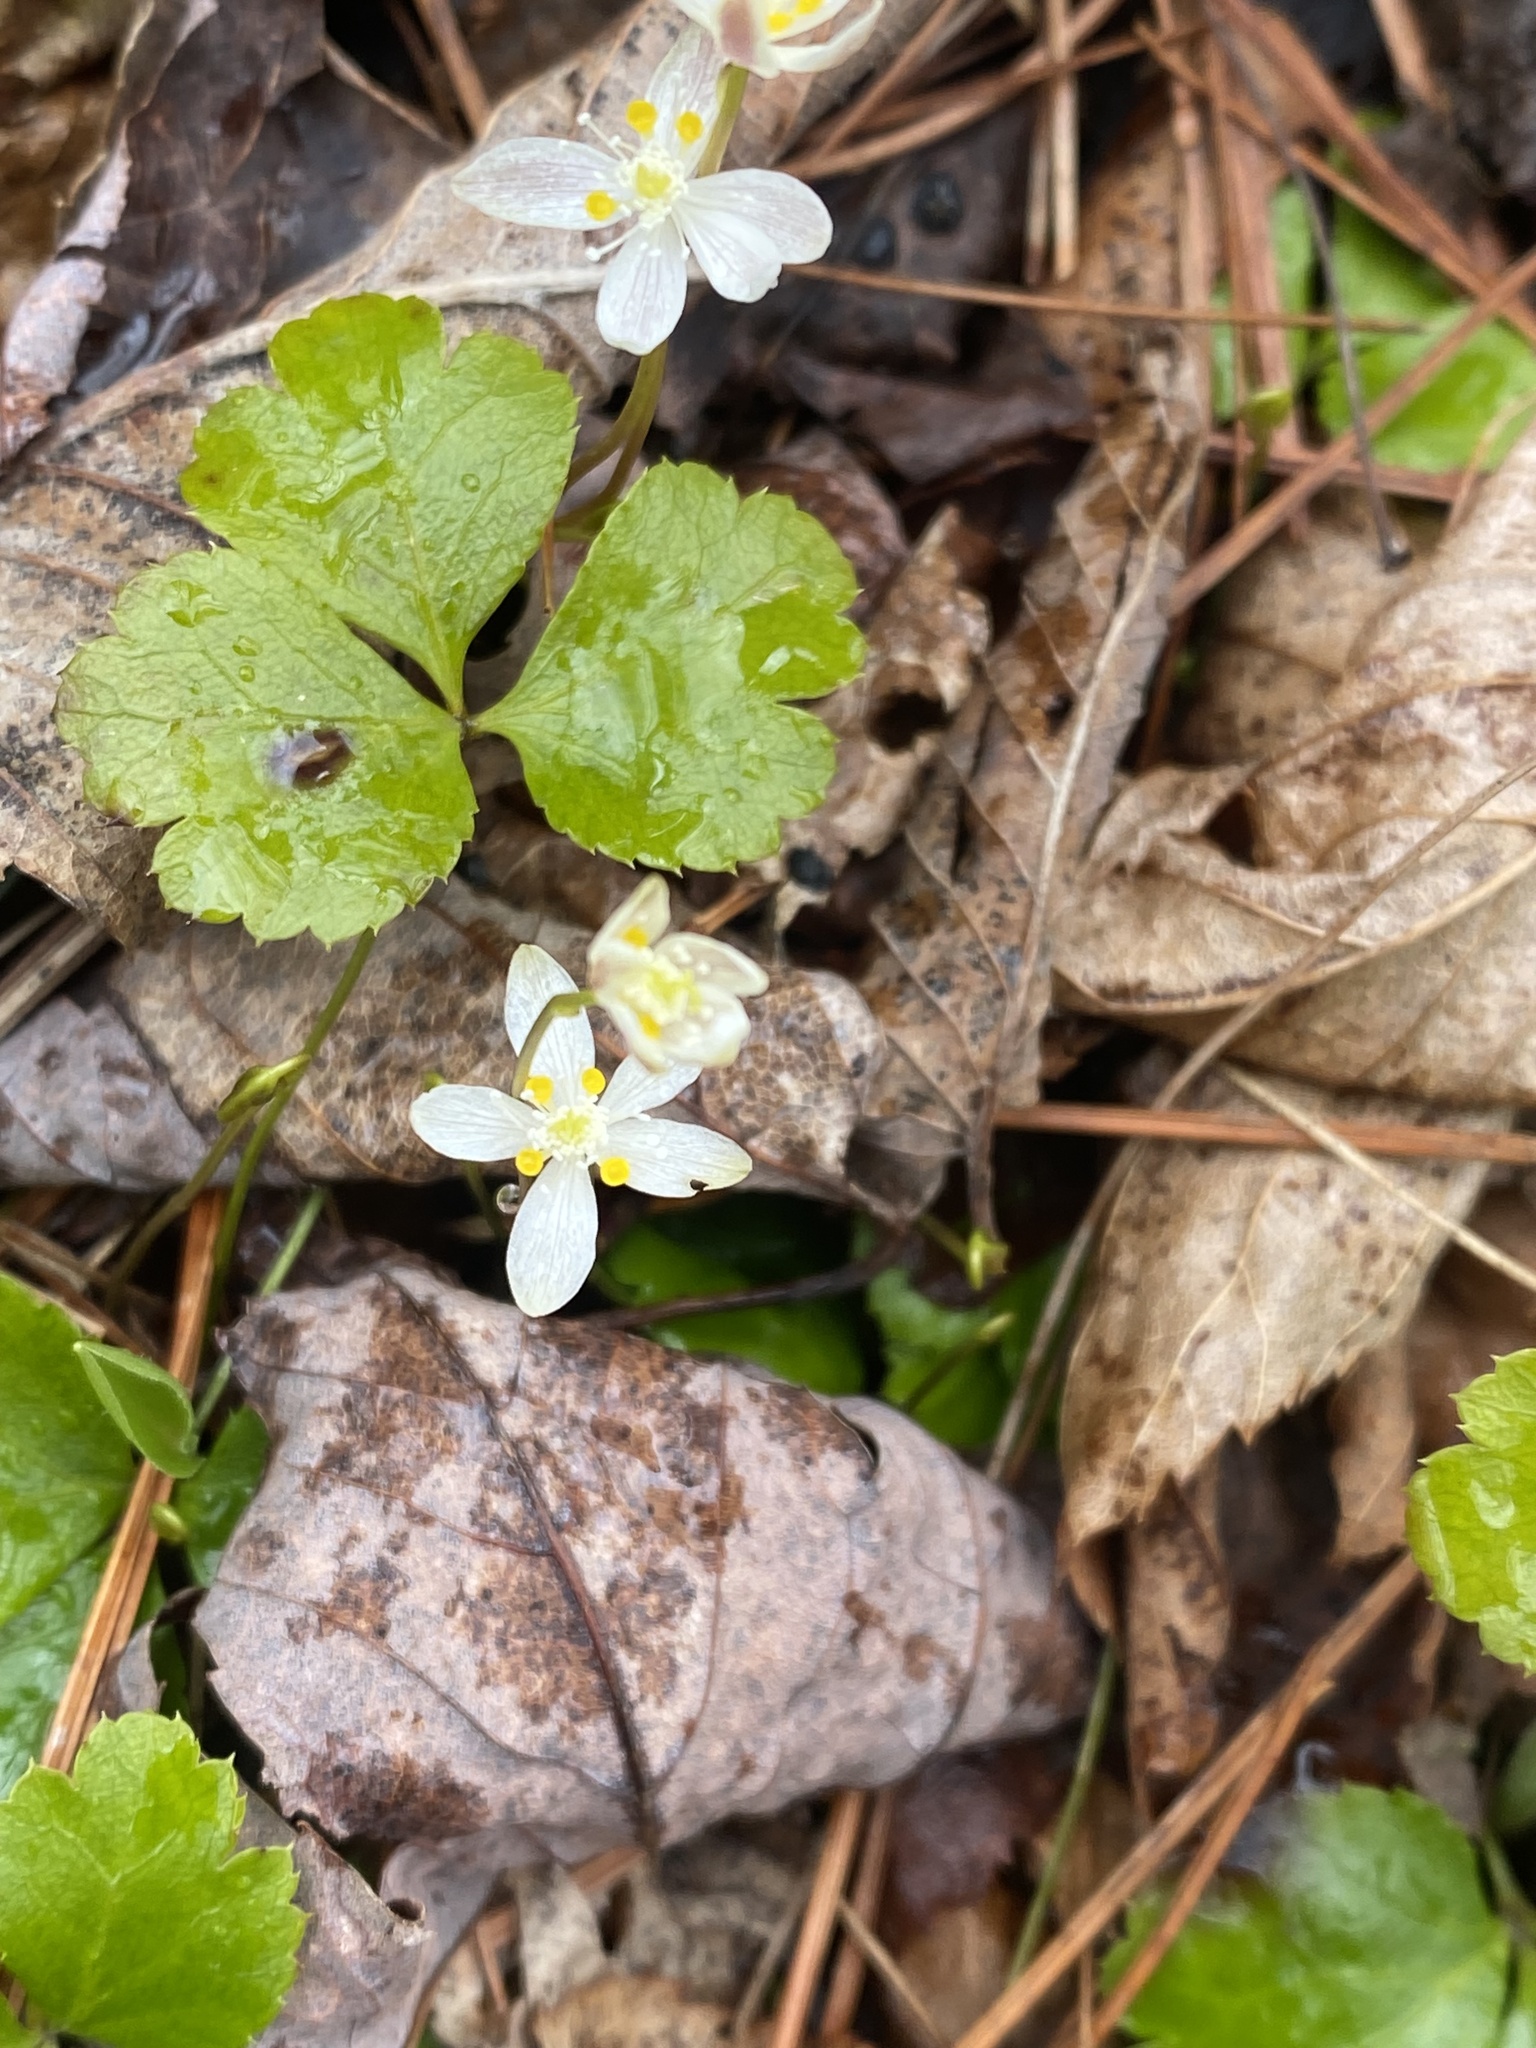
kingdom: Plantae
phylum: Tracheophyta
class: Magnoliopsida
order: Ranunculales
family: Ranunculaceae
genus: Coptis
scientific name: Coptis trifolia
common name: Canker-root
